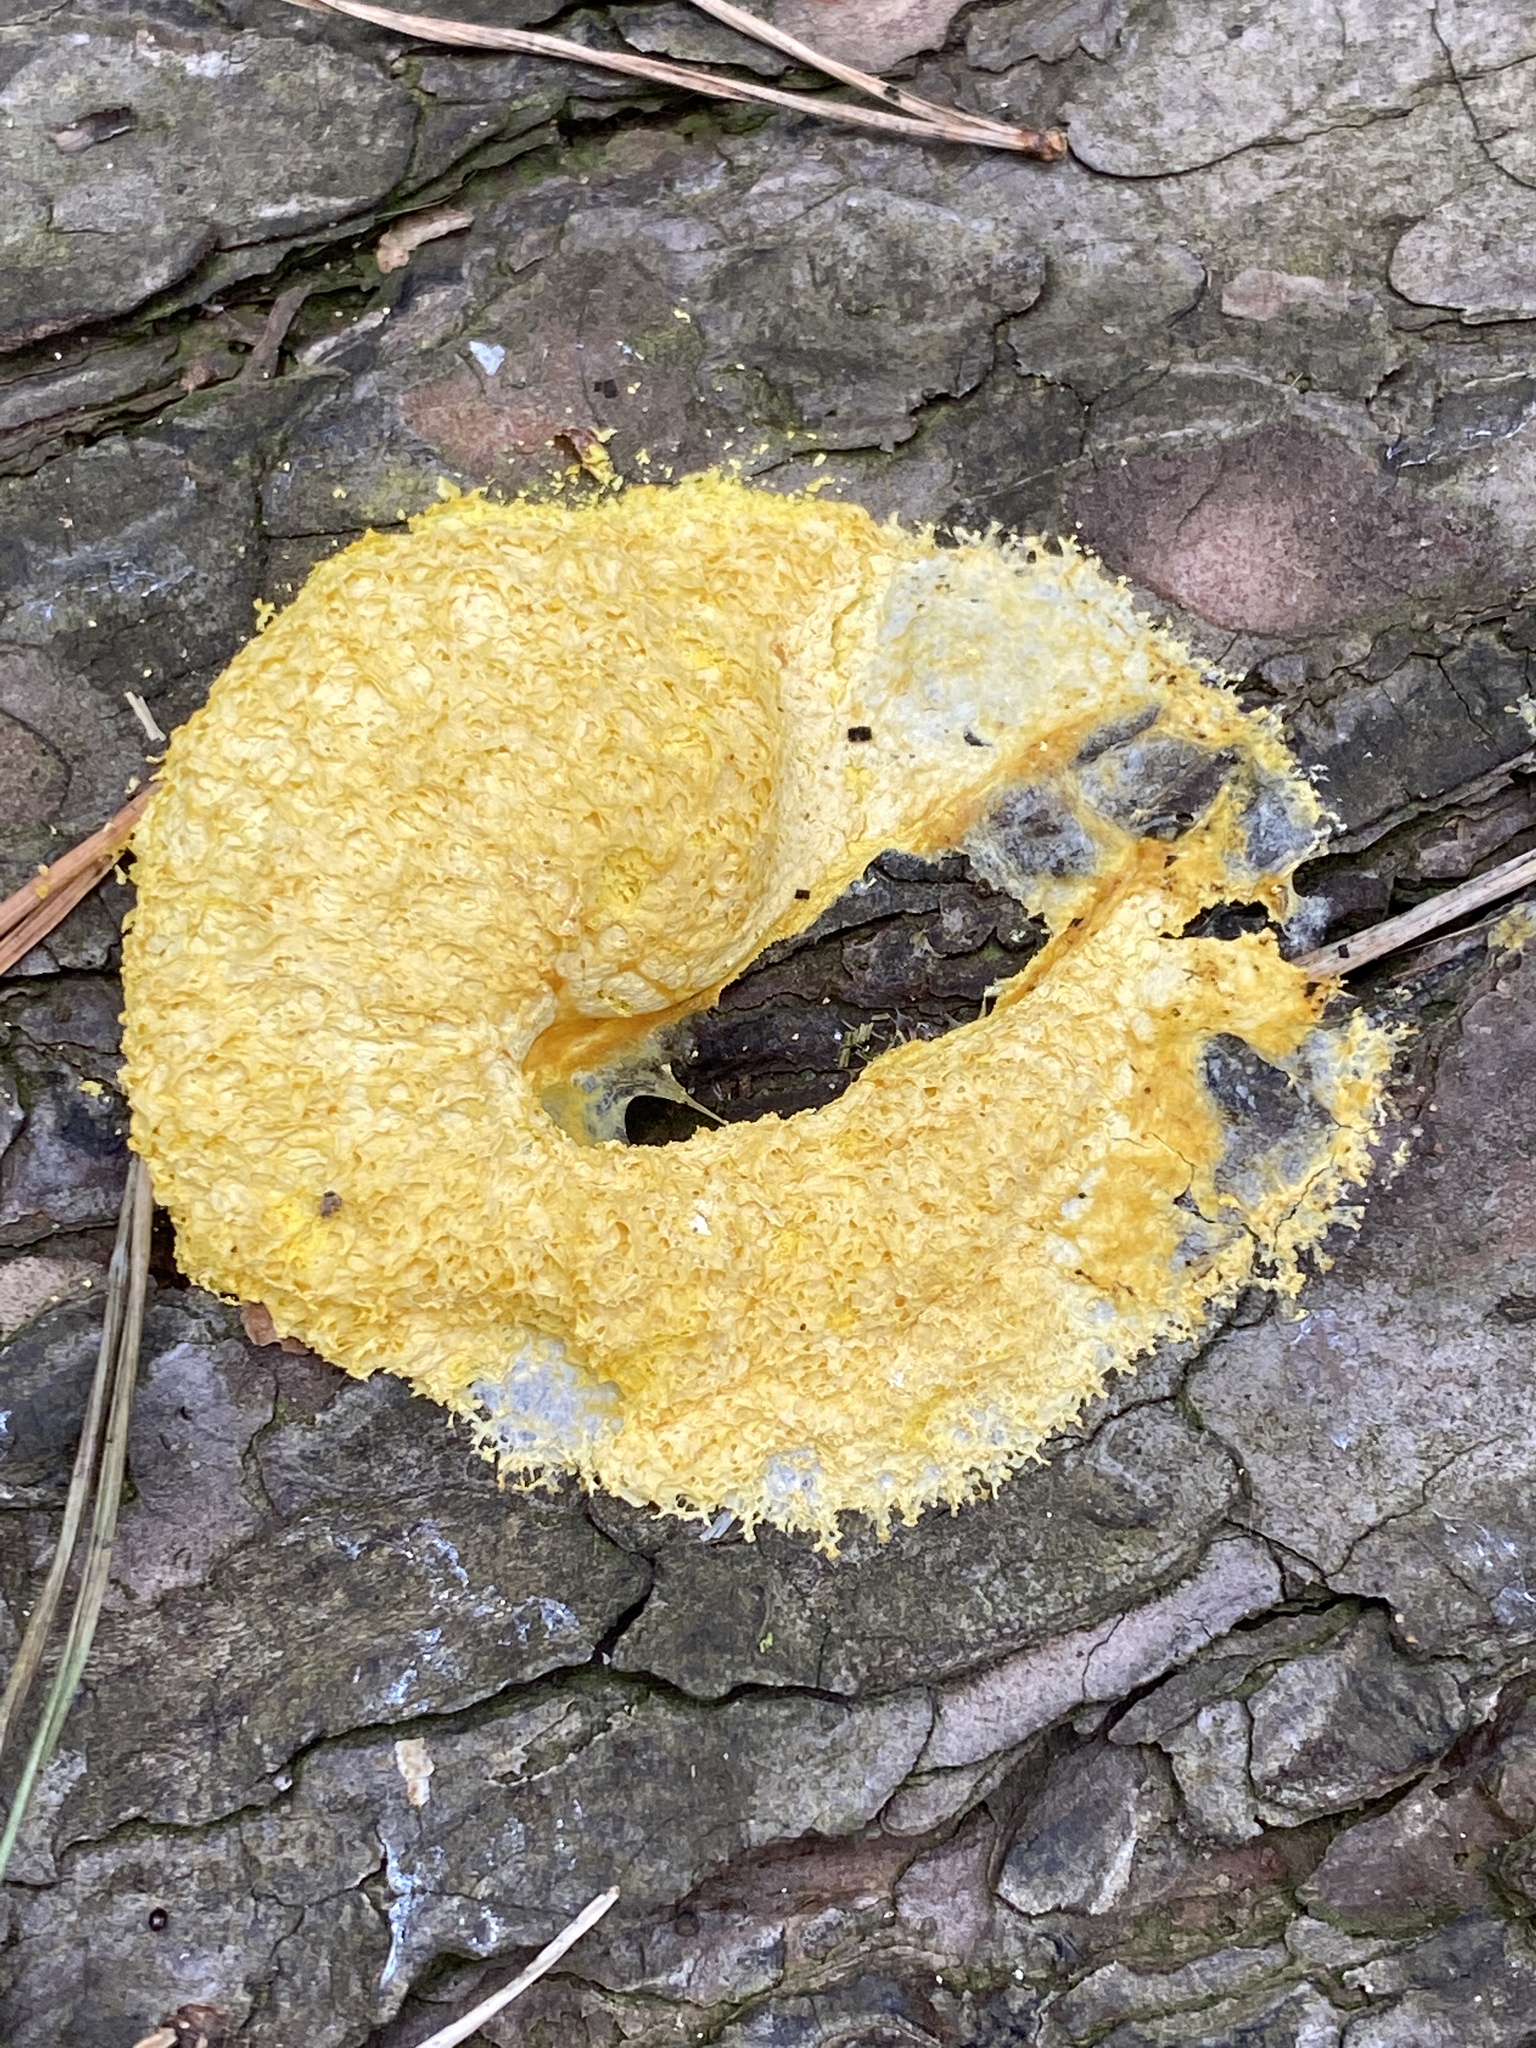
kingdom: Protozoa
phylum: Mycetozoa
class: Myxomycetes
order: Physarales
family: Physaraceae
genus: Fuligo
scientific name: Fuligo septica
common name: Dog vomit slime mold
